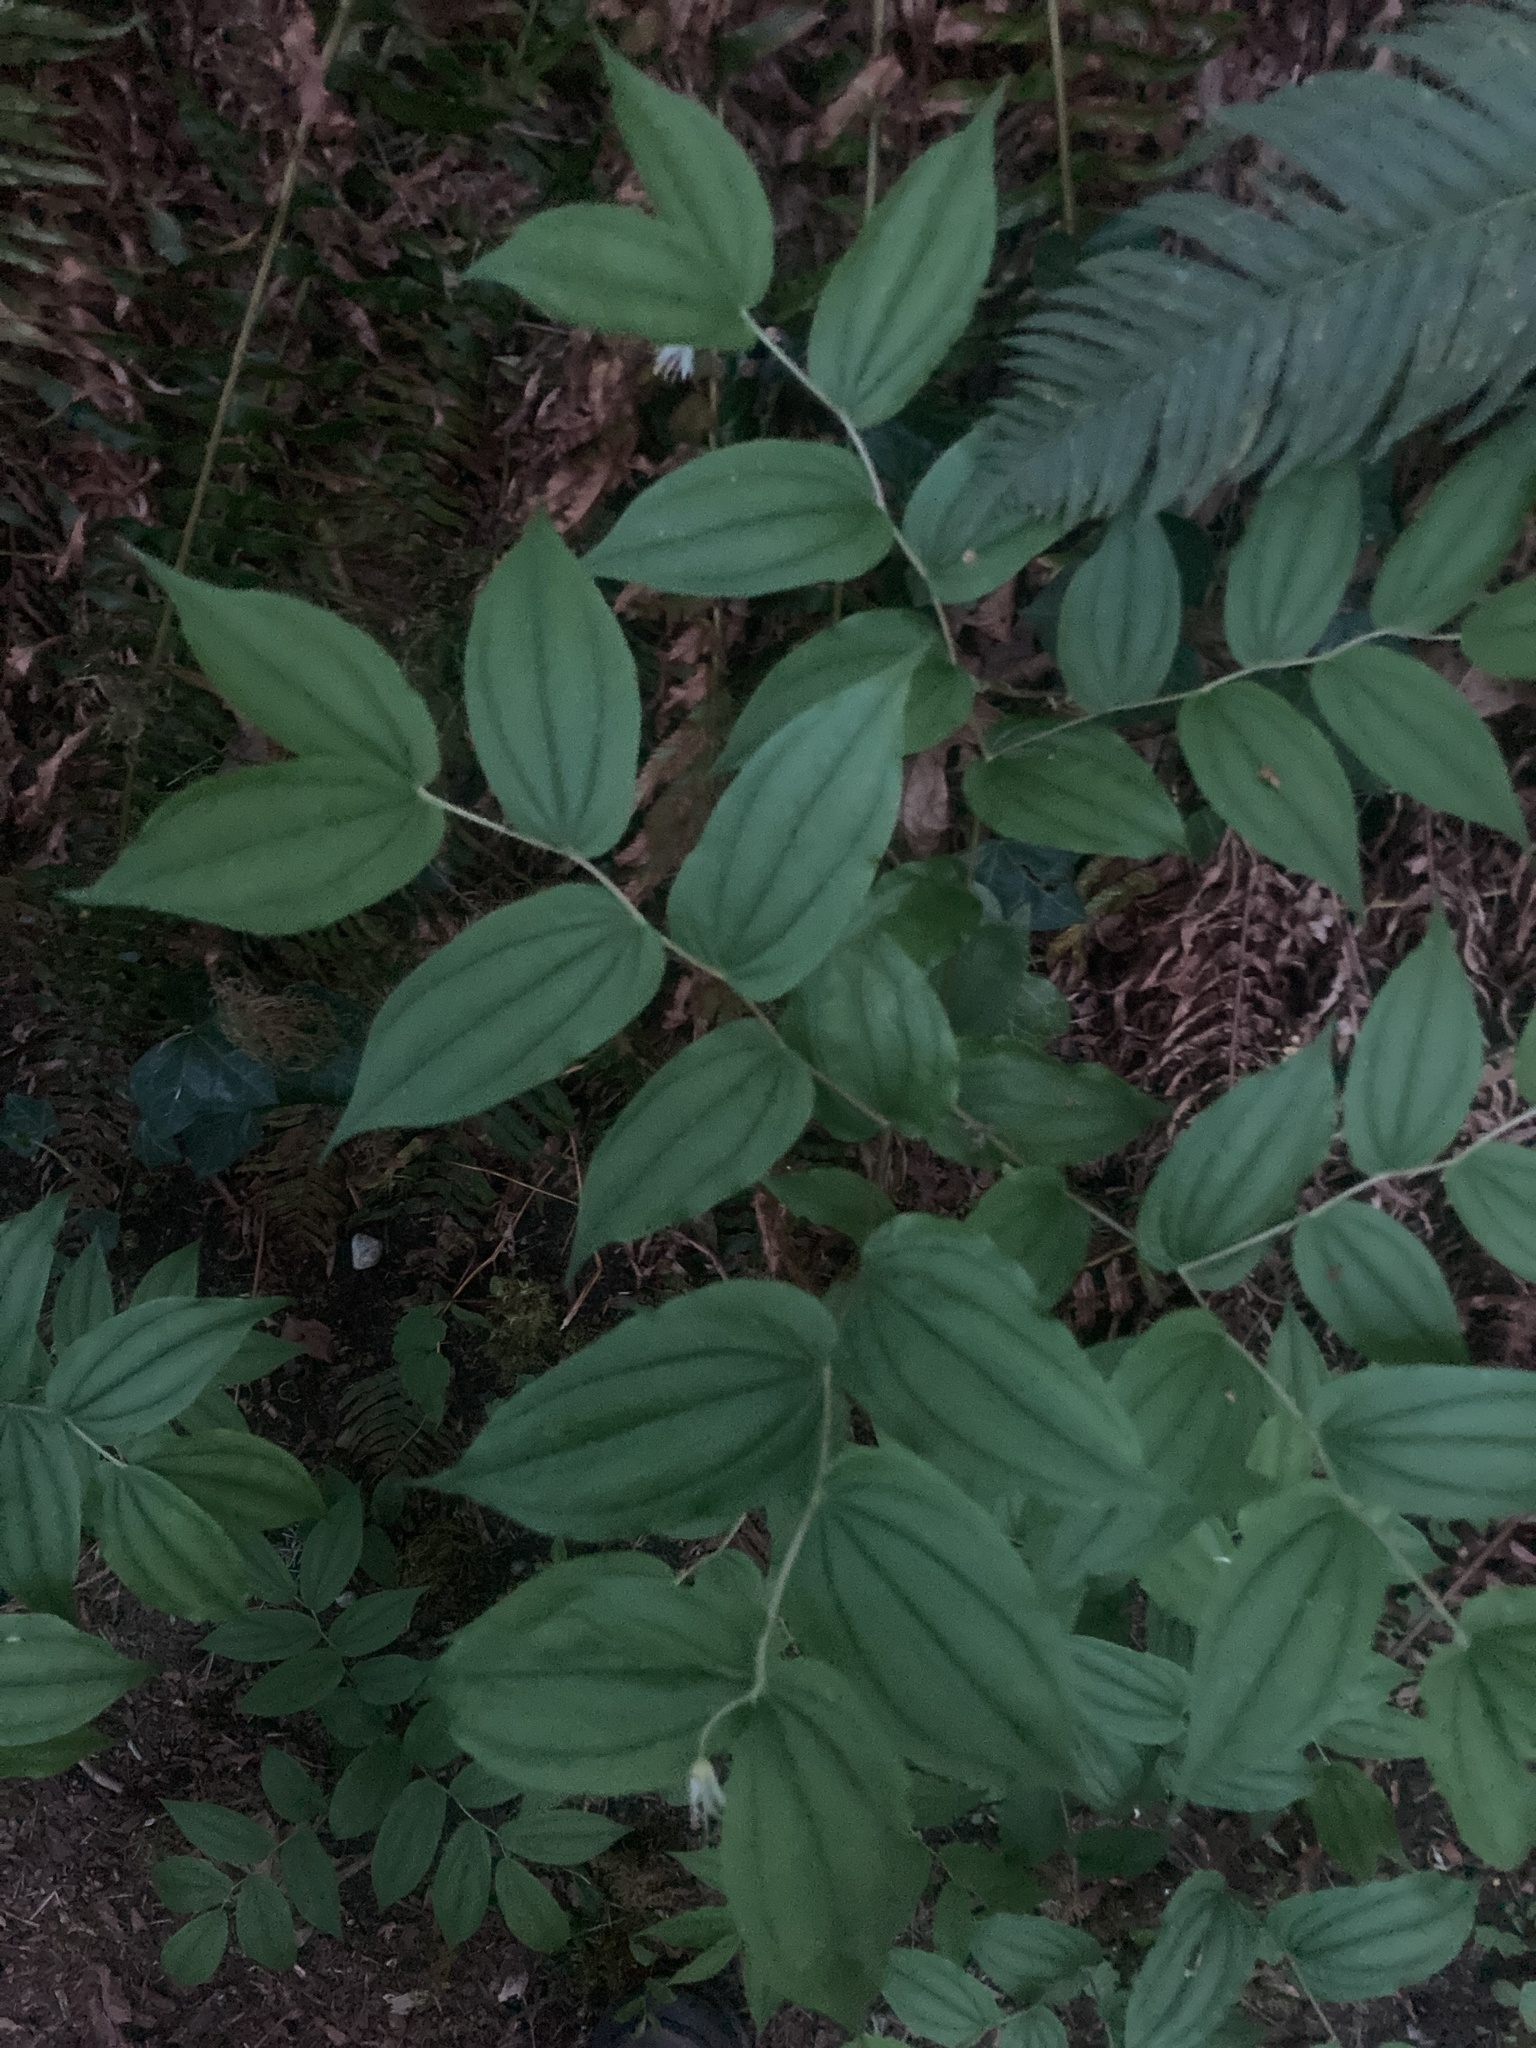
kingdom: Plantae
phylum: Tracheophyta
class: Liliopsida
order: Liliales
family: Liliaceae
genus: Prosartes
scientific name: Prosartes hookeri
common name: Fairy-bells
